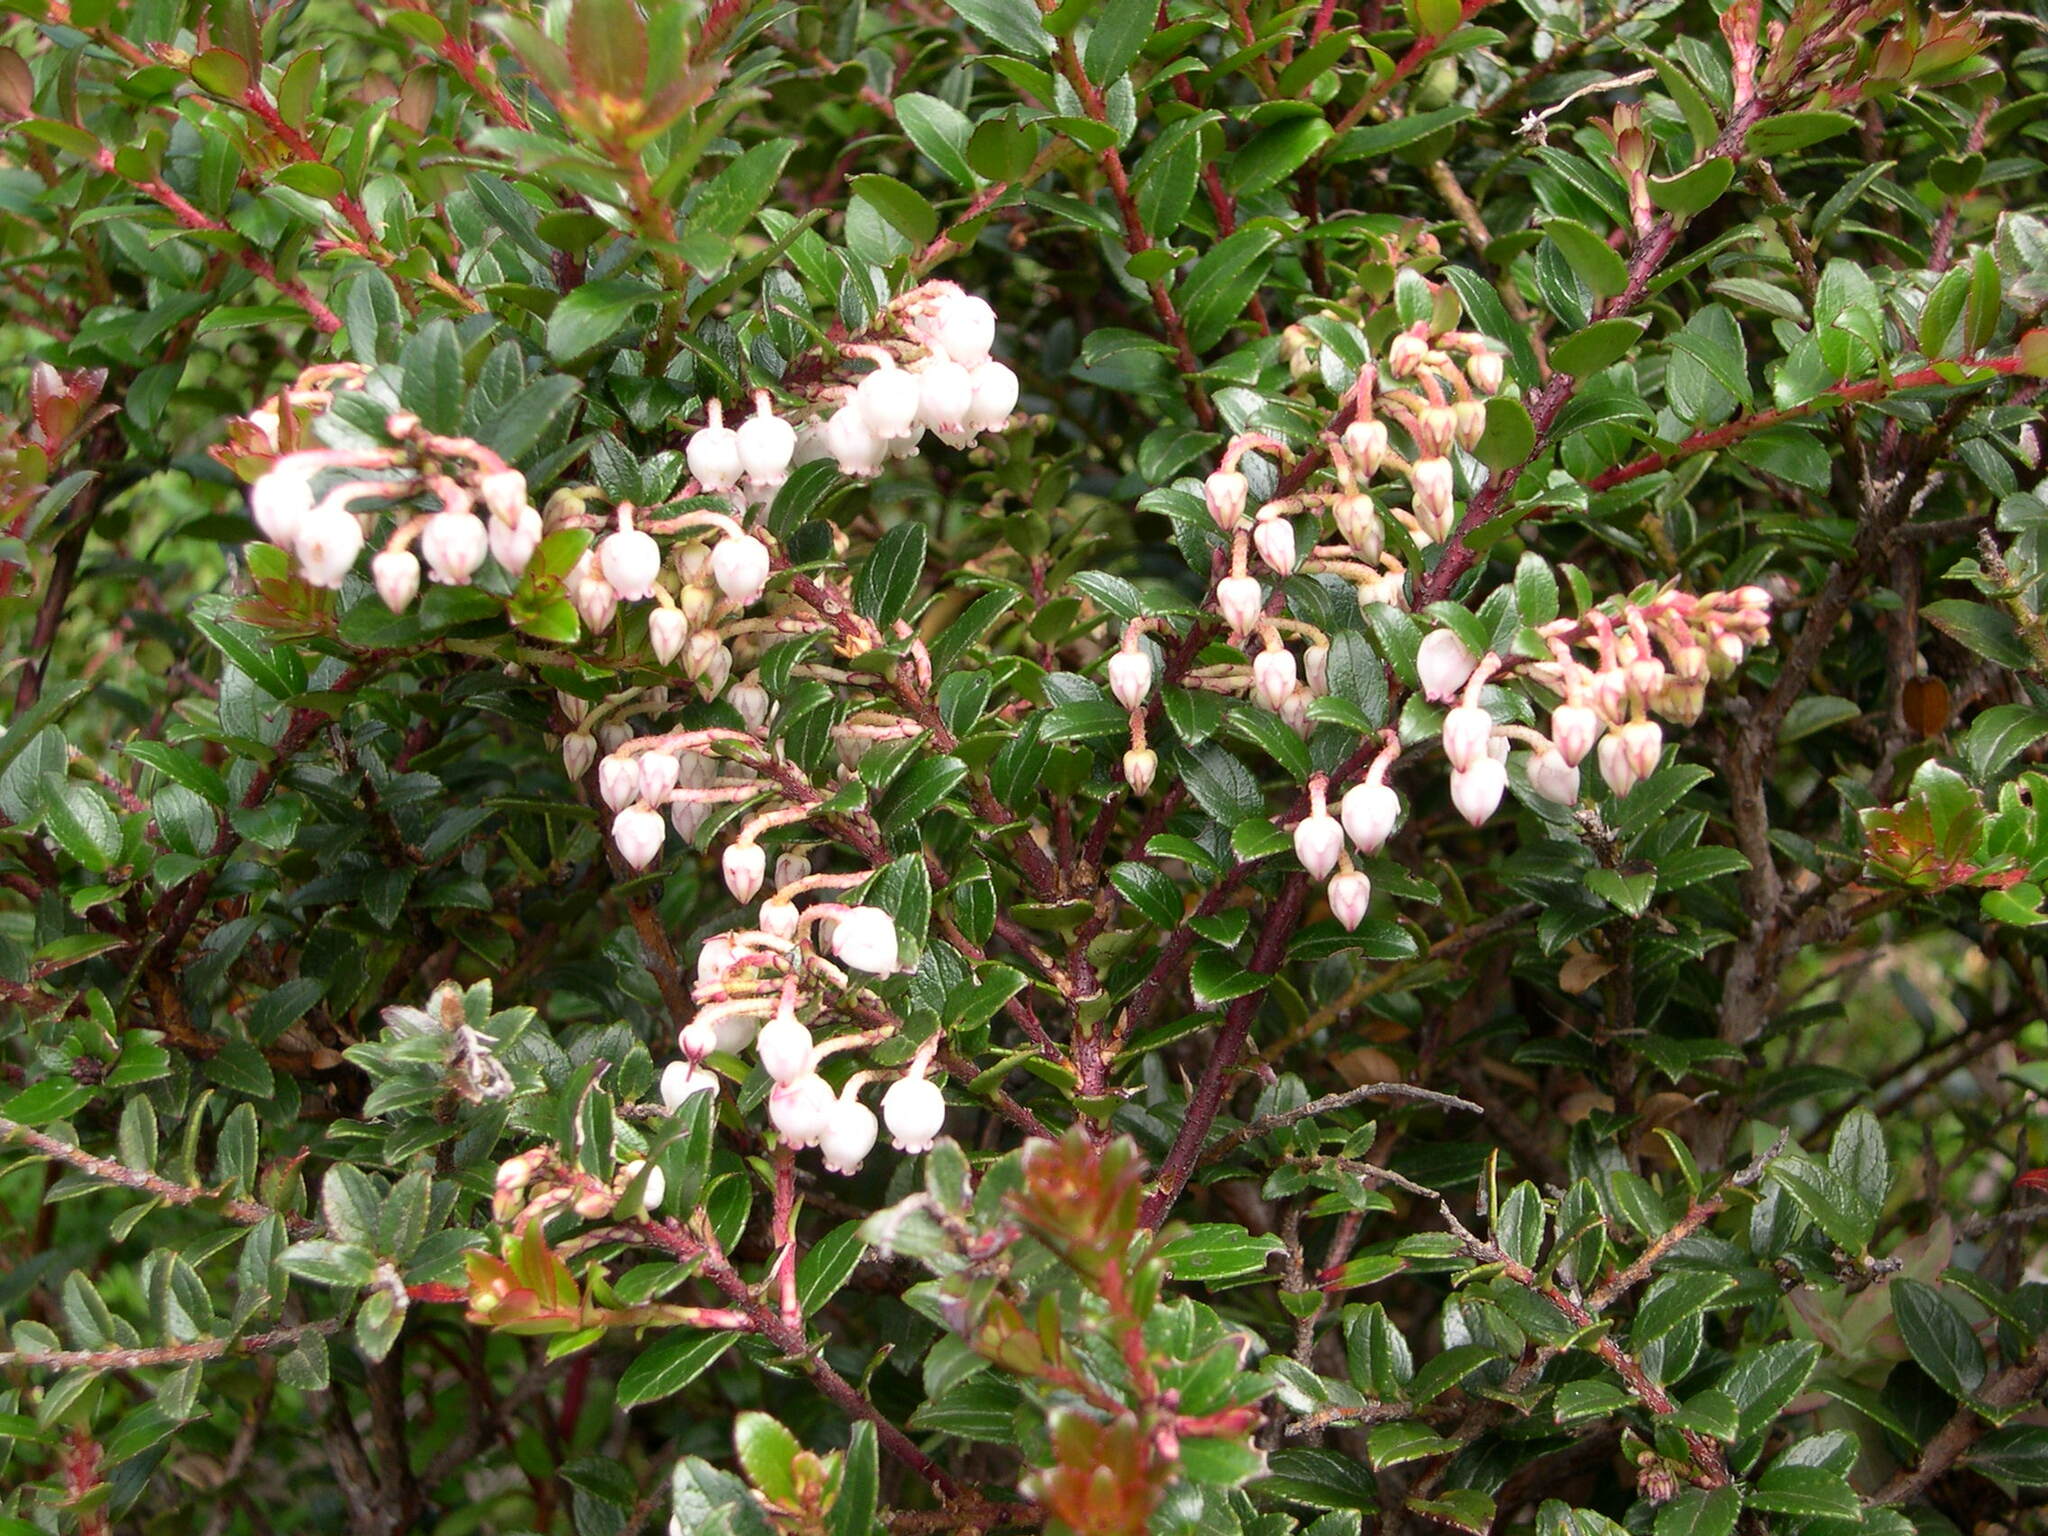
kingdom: Plantae
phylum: Tracheophyta
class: Magnoliopsida
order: Ericales
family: Ericaceae
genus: Gaultheria
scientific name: Gaultheria myrsinoides
